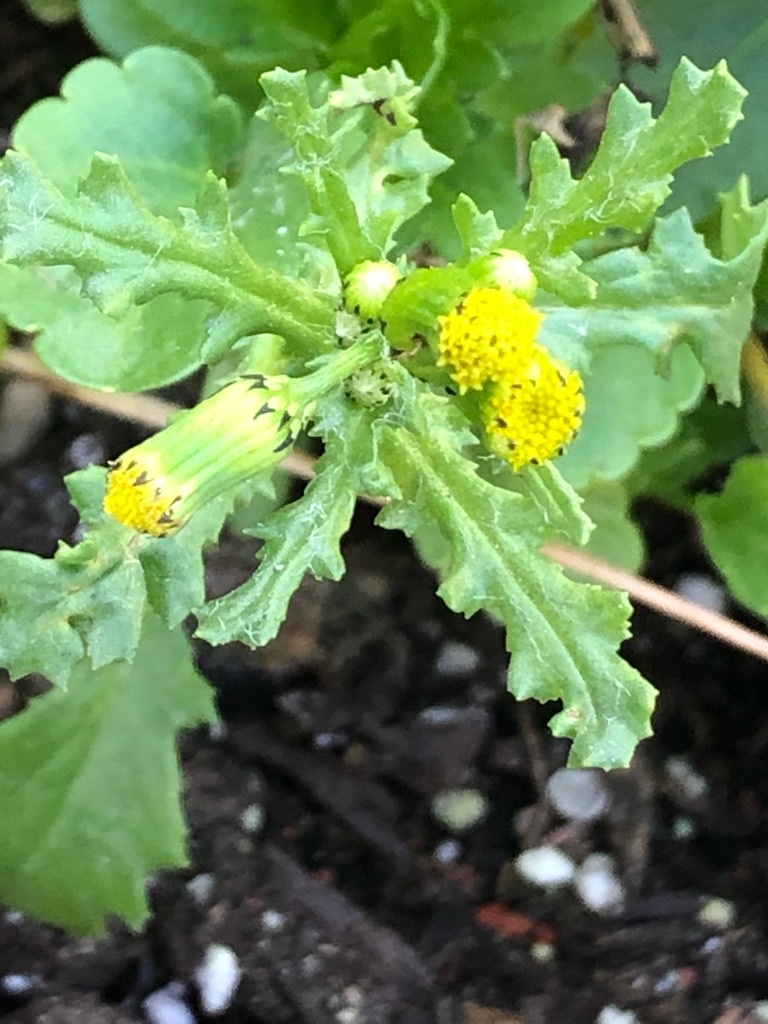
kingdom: Plantae
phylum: Tracheophyta
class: Magnoliopsida
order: Asterales
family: Asteraceae
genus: Senecio
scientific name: Senecio vulgaris
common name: Old-man-in-the-spring
